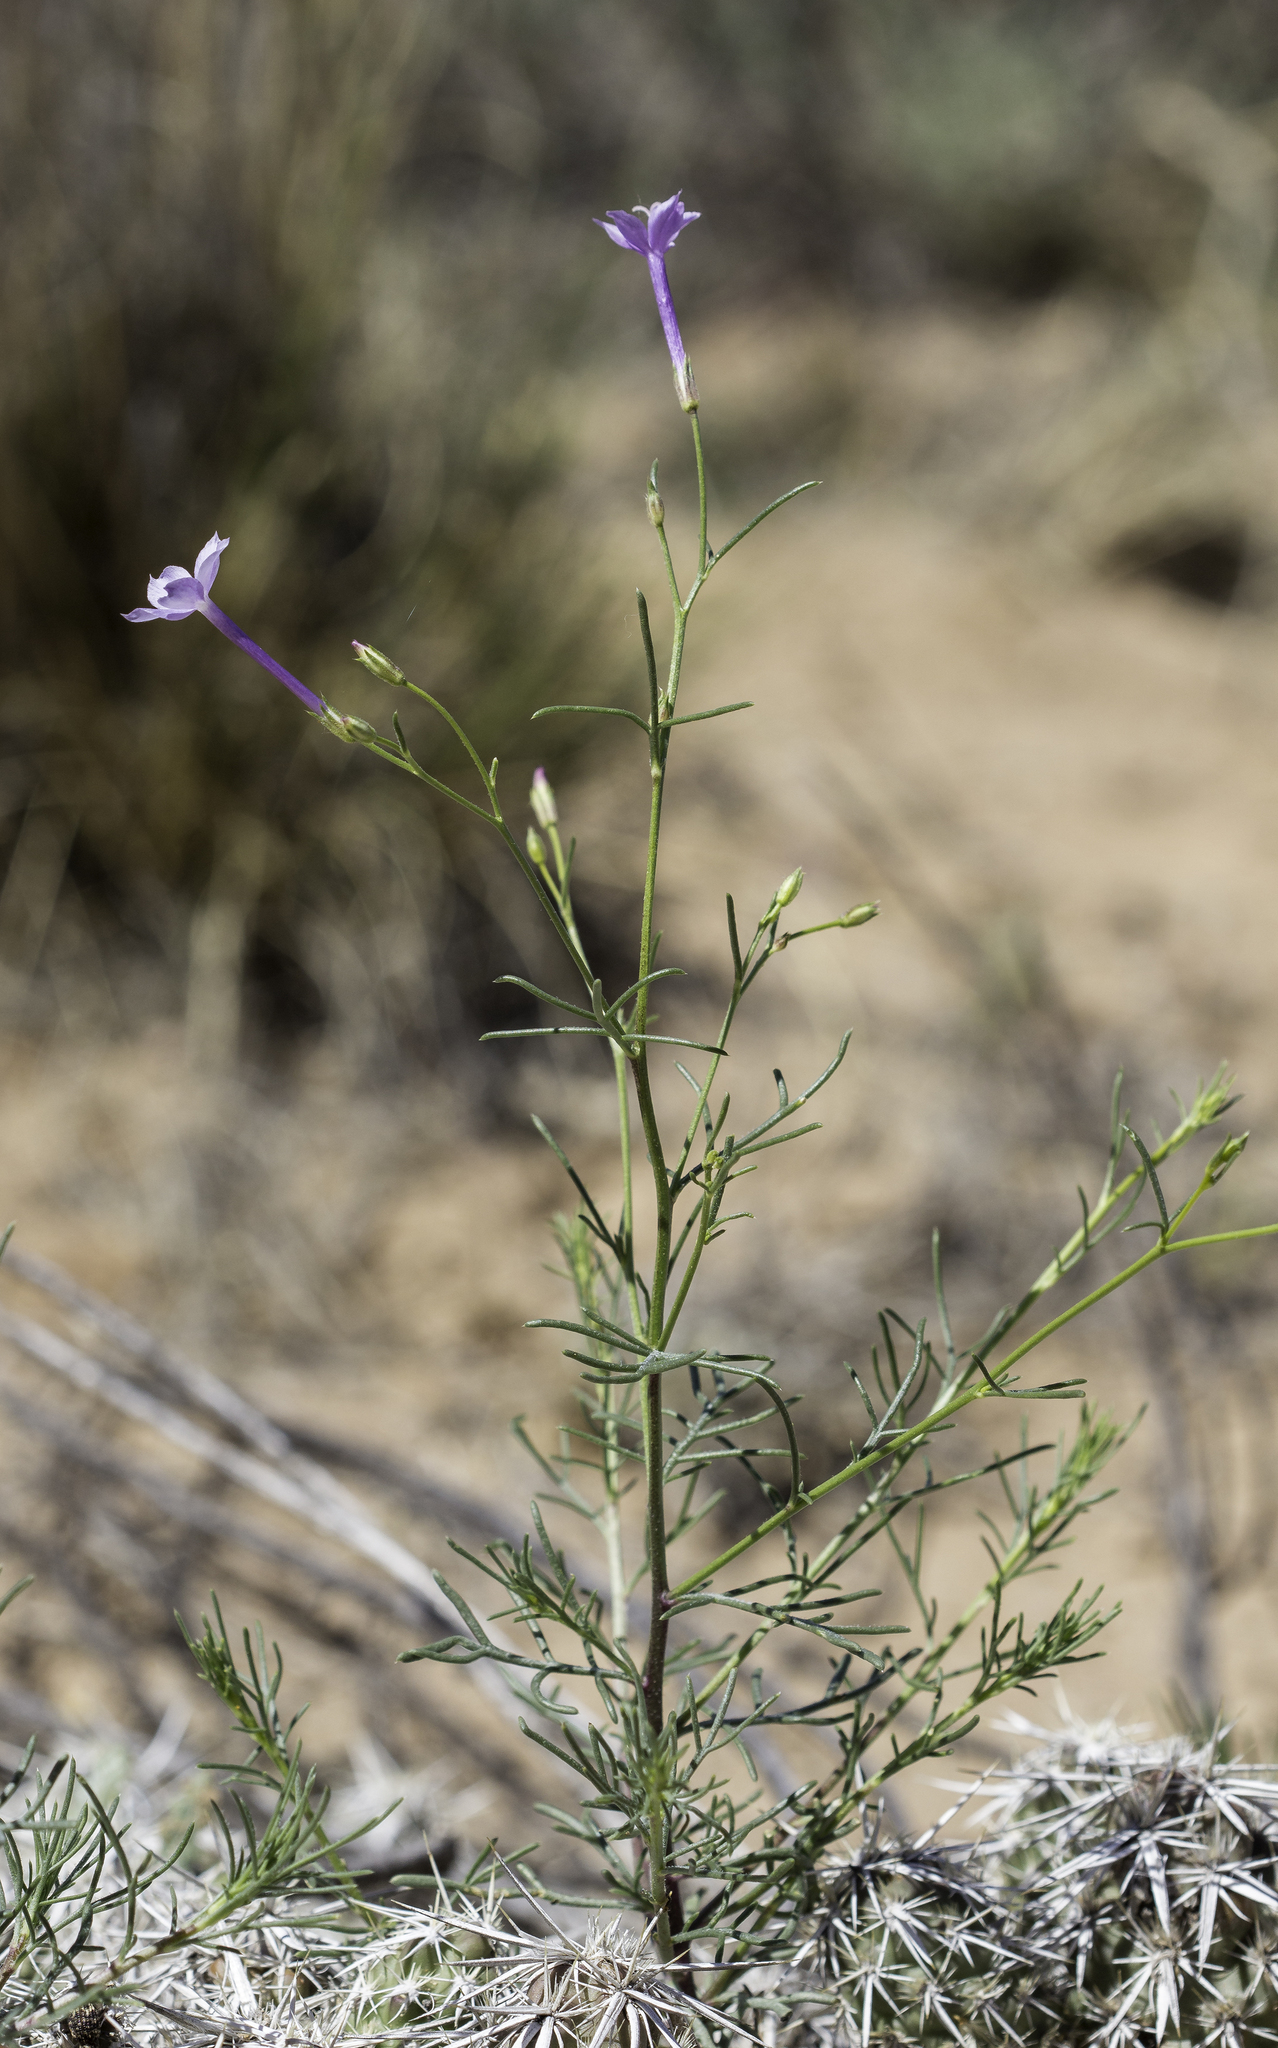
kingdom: Plantae
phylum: Tracheophyta
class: Magnoliopsida
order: Ericales
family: Polemoniaceae
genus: Ipomopsis
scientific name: Ipomopsis laxiflora
